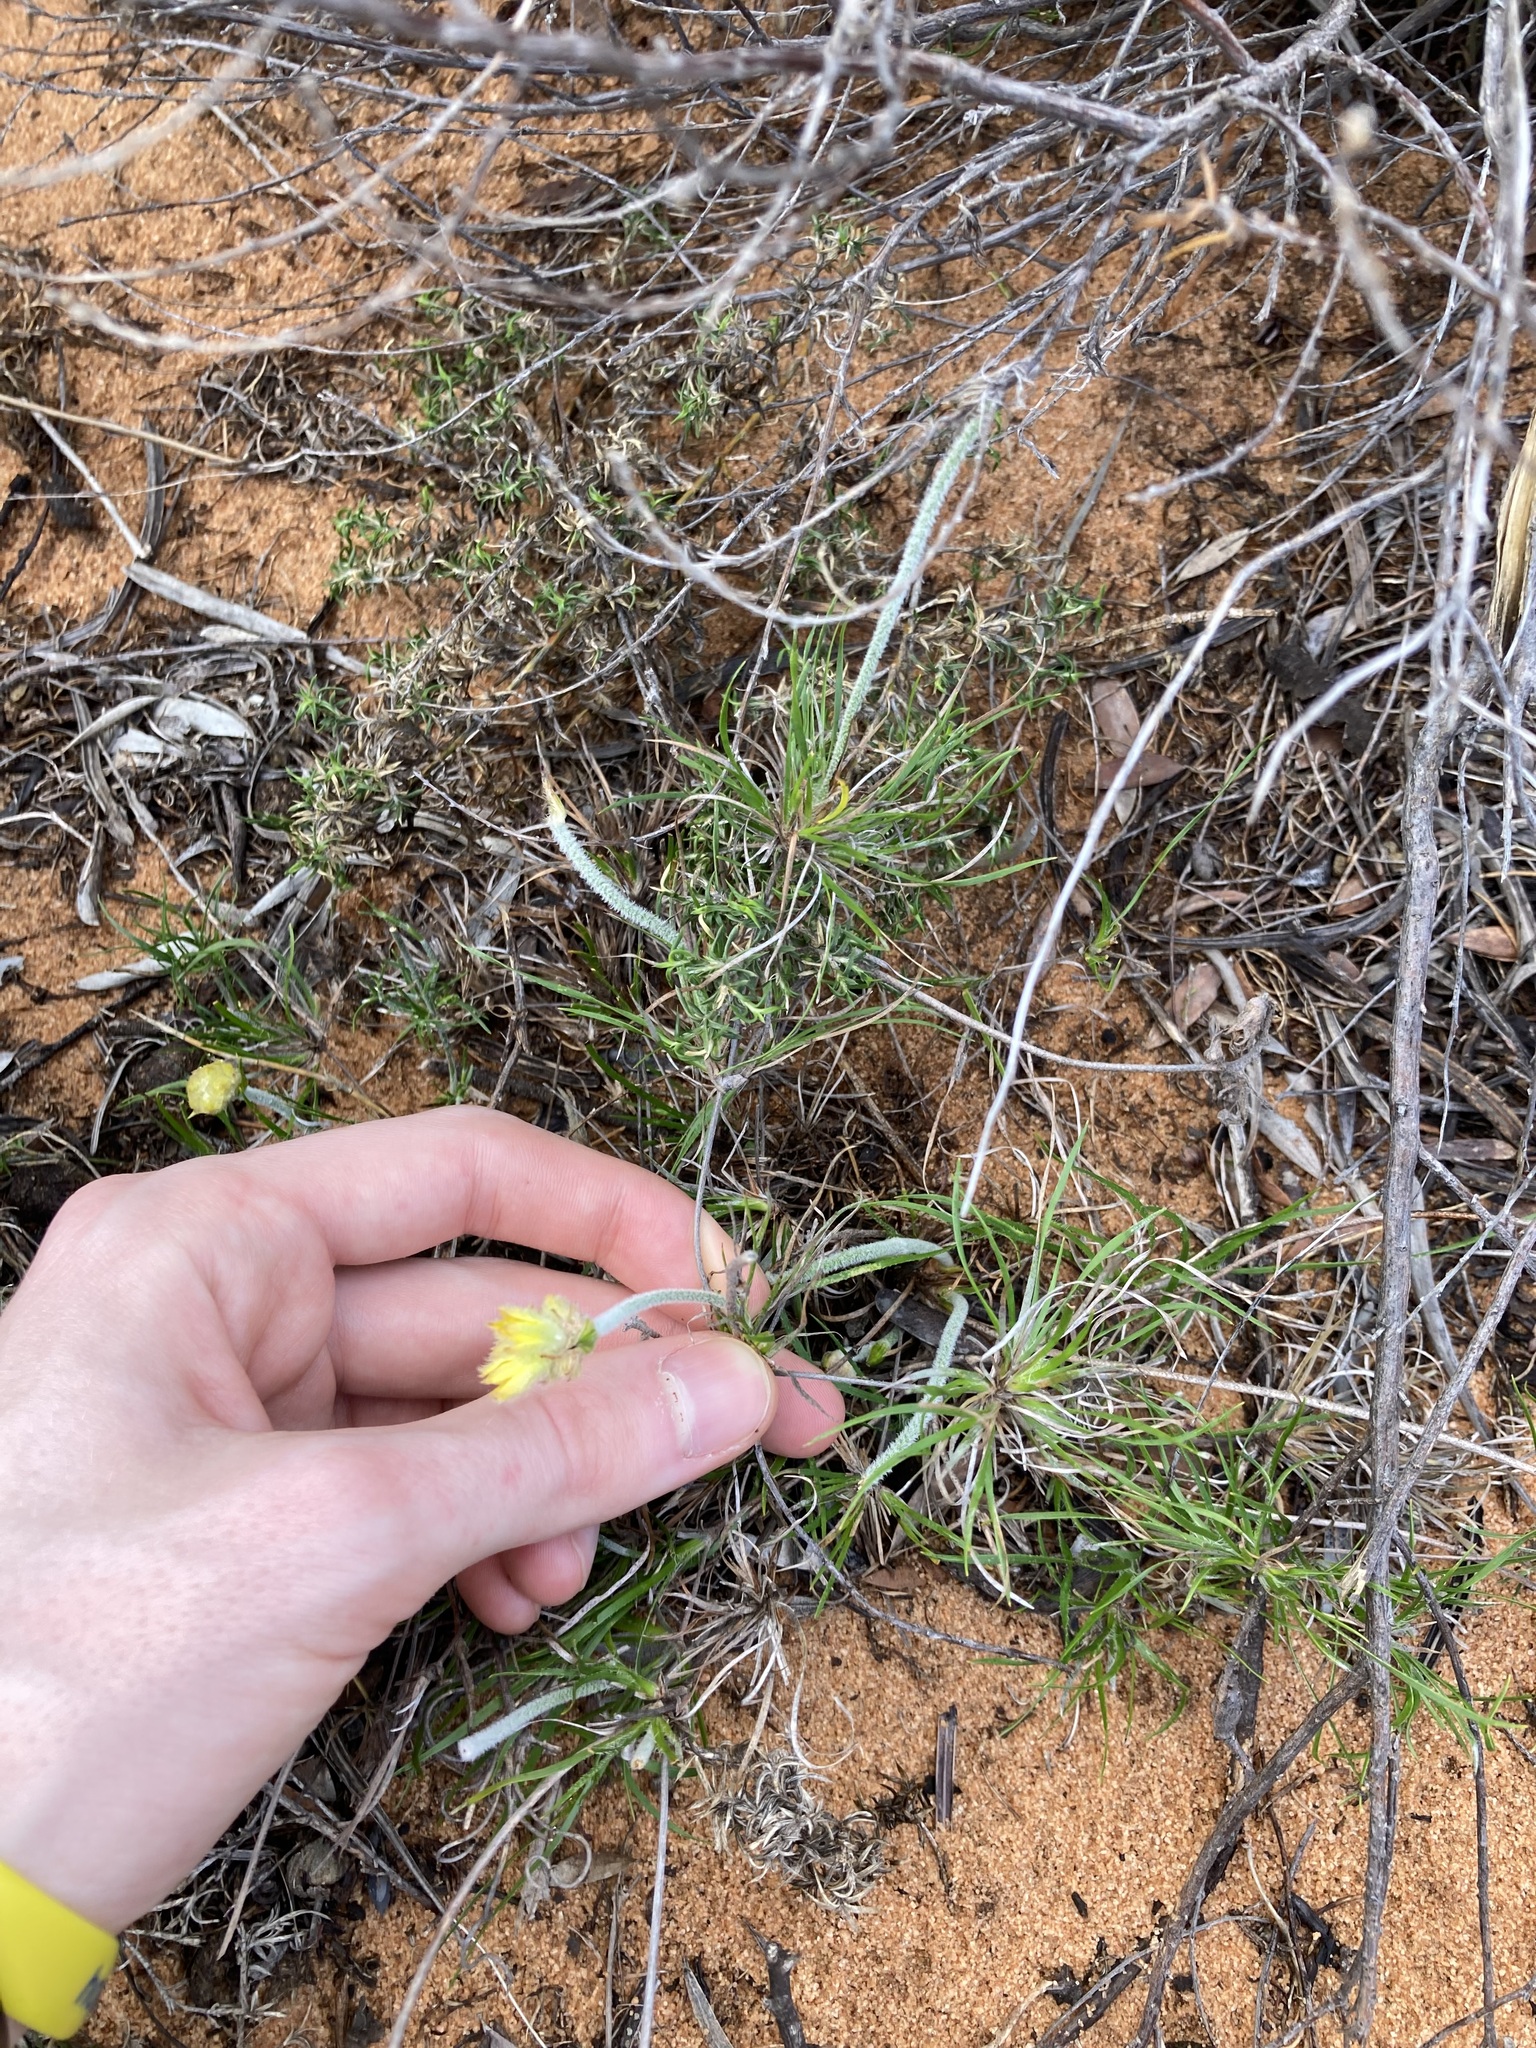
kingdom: Plantae
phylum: Tracheophyta
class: Liliopsida
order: Commelinales
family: Haemodoraceae
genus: Conostylis
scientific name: Conostylis stylidioides
